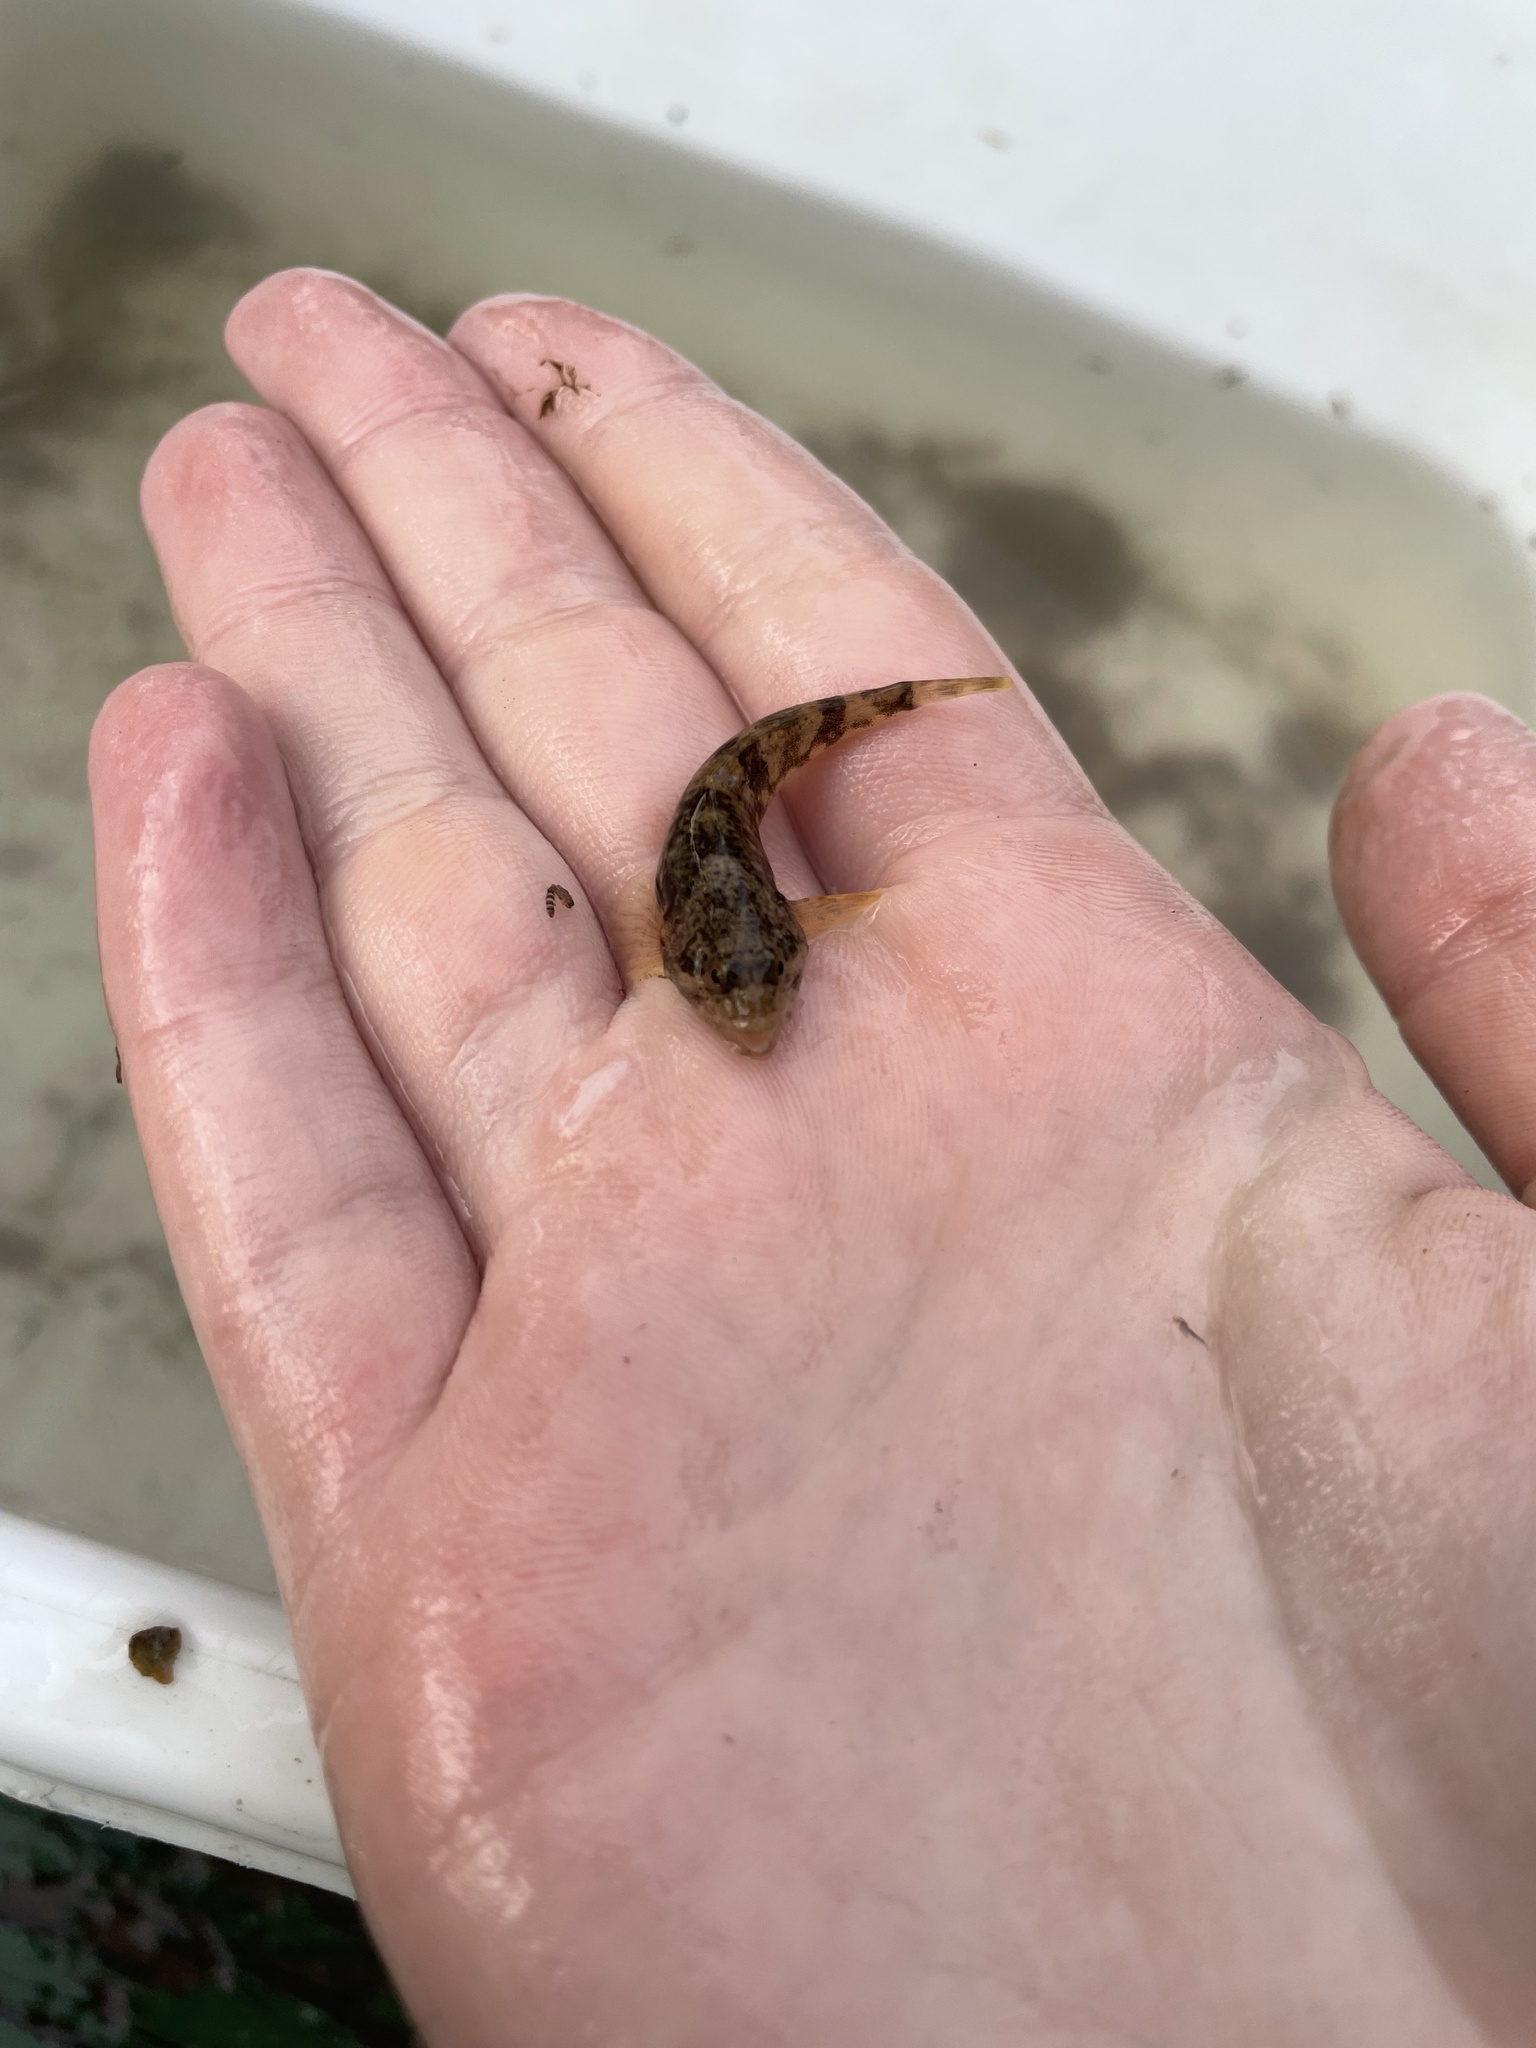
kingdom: Animalia
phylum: Chordata
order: Scorpaeniformes
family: Cottidae
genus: Cottus
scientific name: Cottus bairdii
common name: Mottled sculpin
